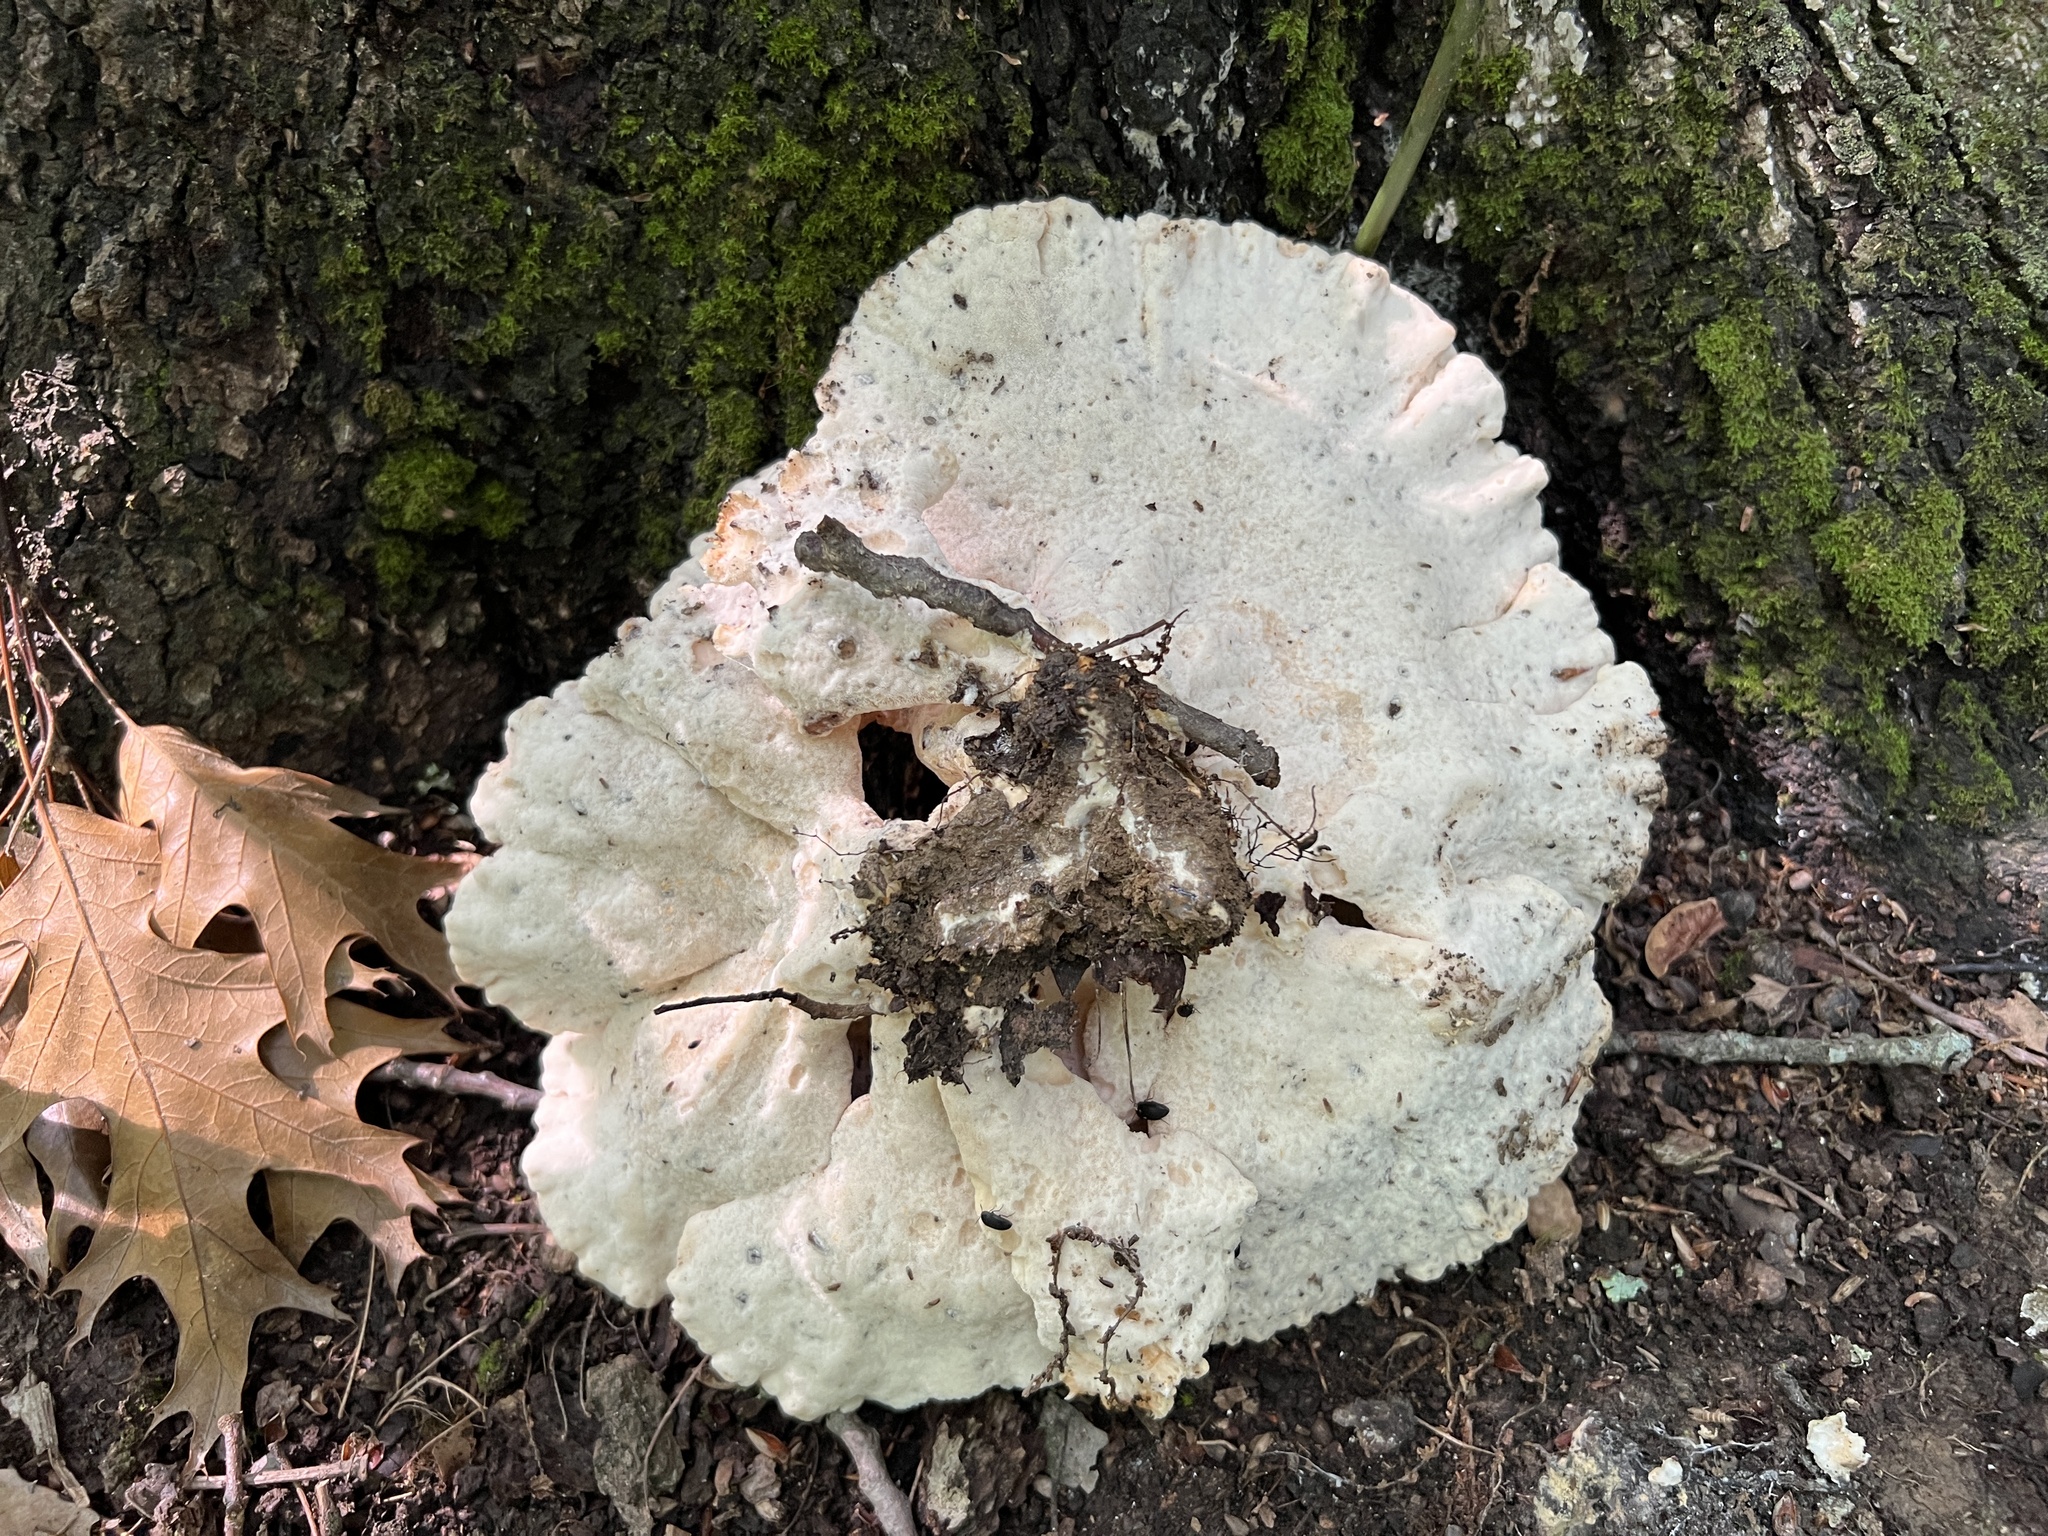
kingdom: Fungi
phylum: Basidiomycota
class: Agaricomycetes
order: Polyporales
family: Laetiporaceae
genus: Laetiporus
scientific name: Laetiporus sulphureus
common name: Chicken of the woods
